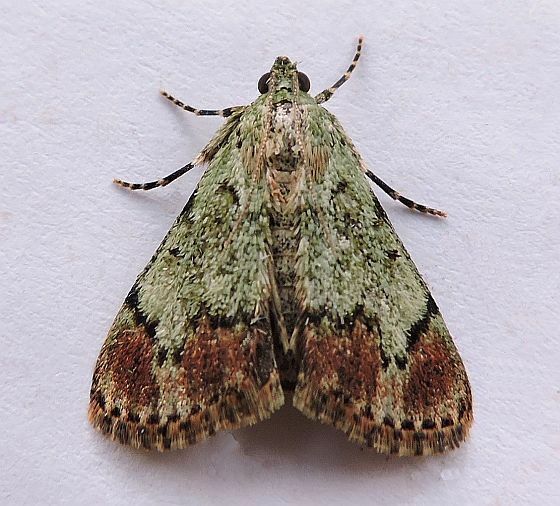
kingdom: Animalia
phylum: Arthropoda
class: Insecta
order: Lepidoptera
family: Pyralidae
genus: Epipaschia
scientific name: Epipaschia superatalis
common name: Dimorphic macalla moth
